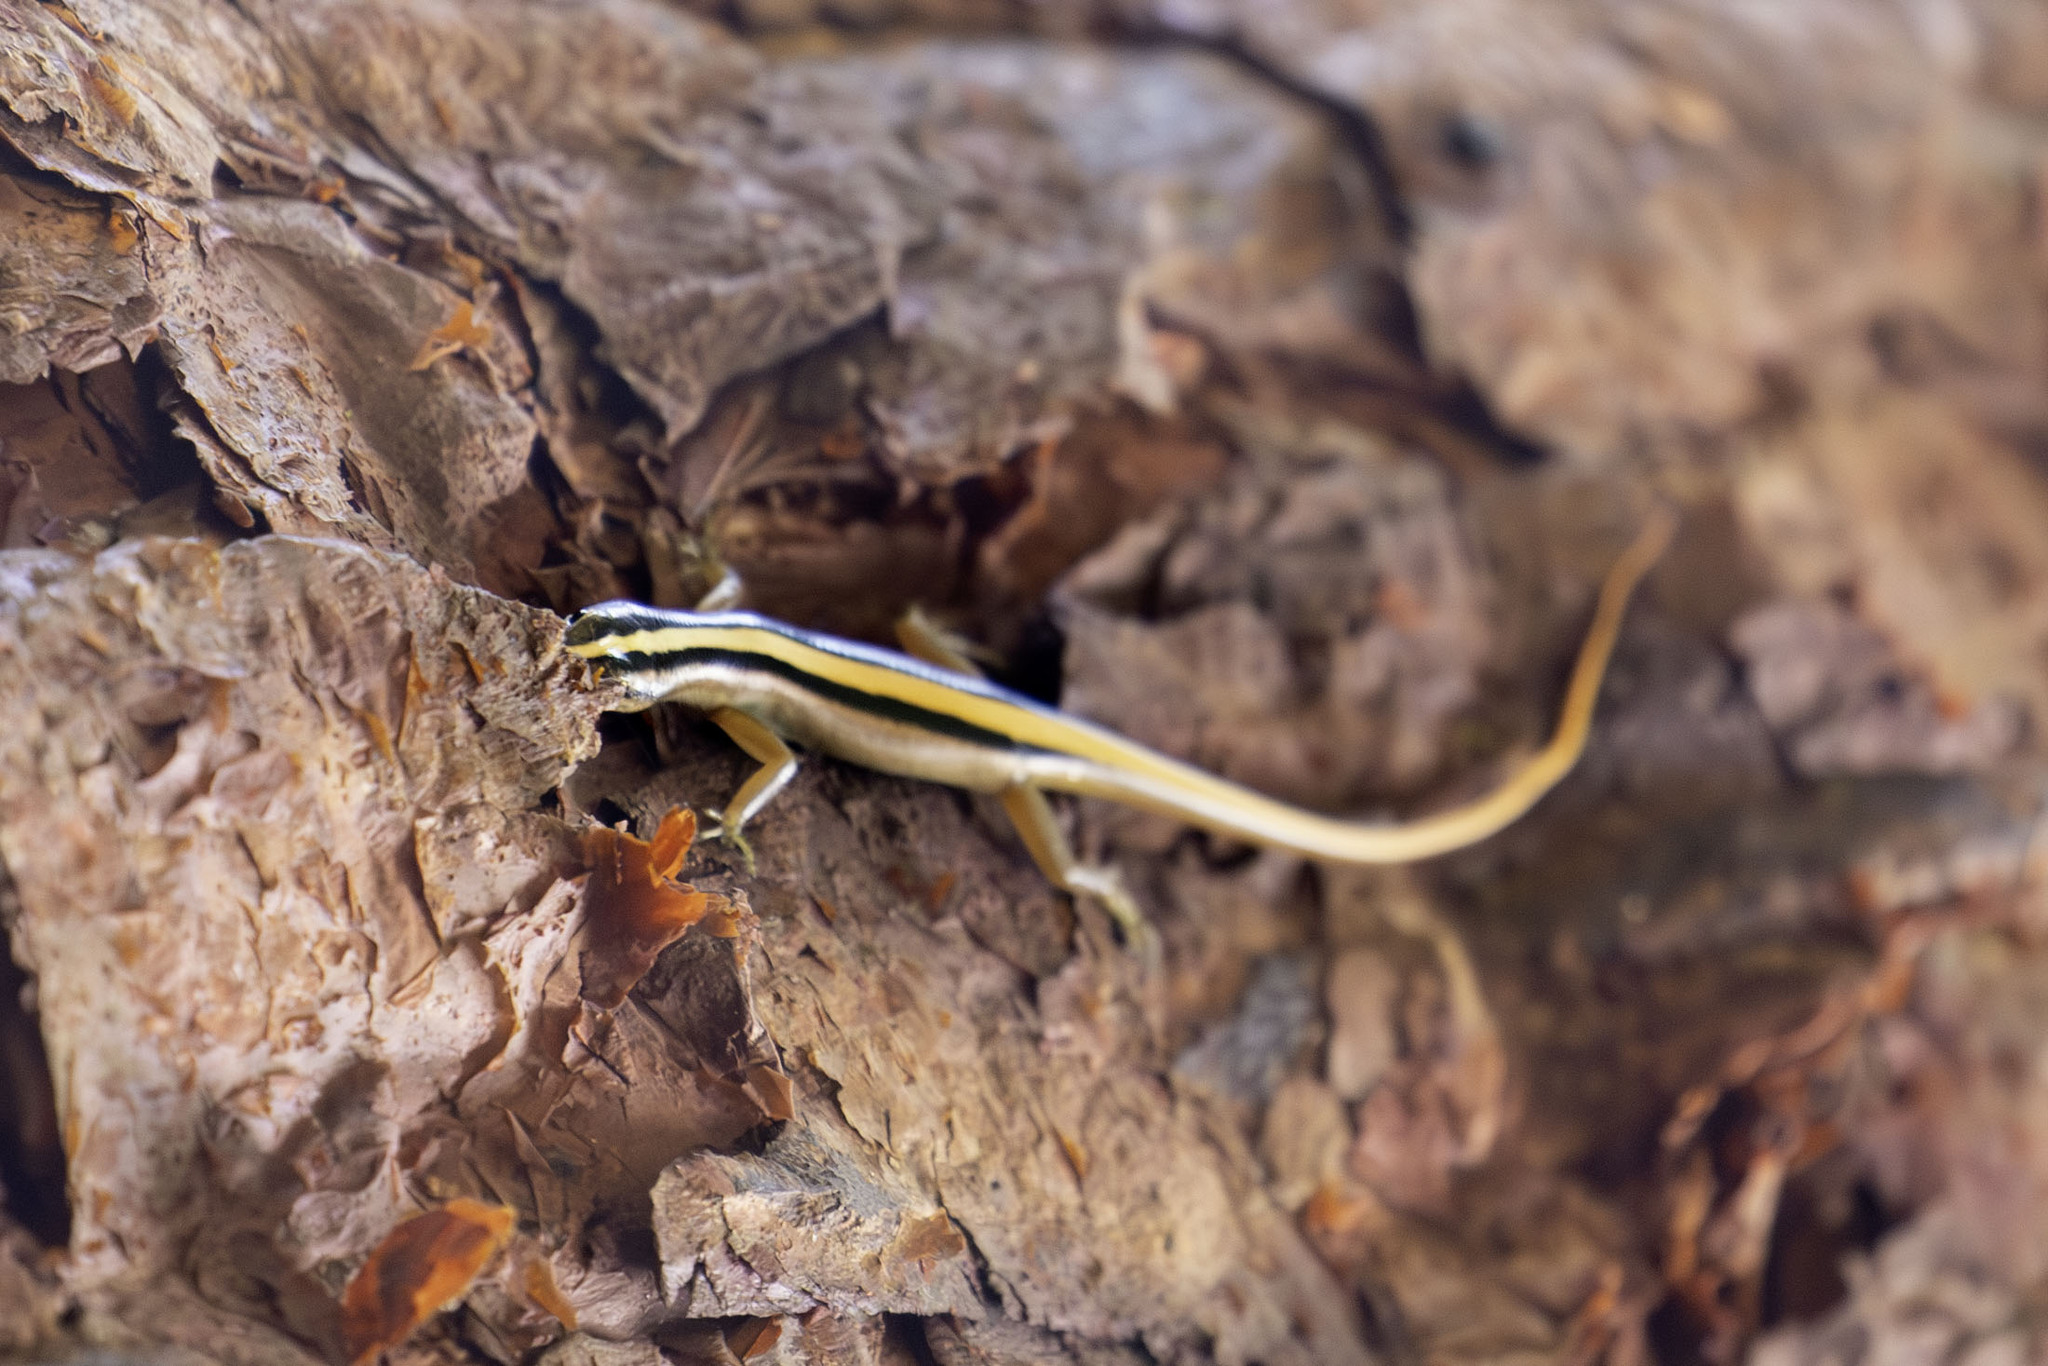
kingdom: Animalia
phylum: Chordata
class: Squamata
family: Scincidae
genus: Lipinia
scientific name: Lipinia vittigera
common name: Banded lipinia
